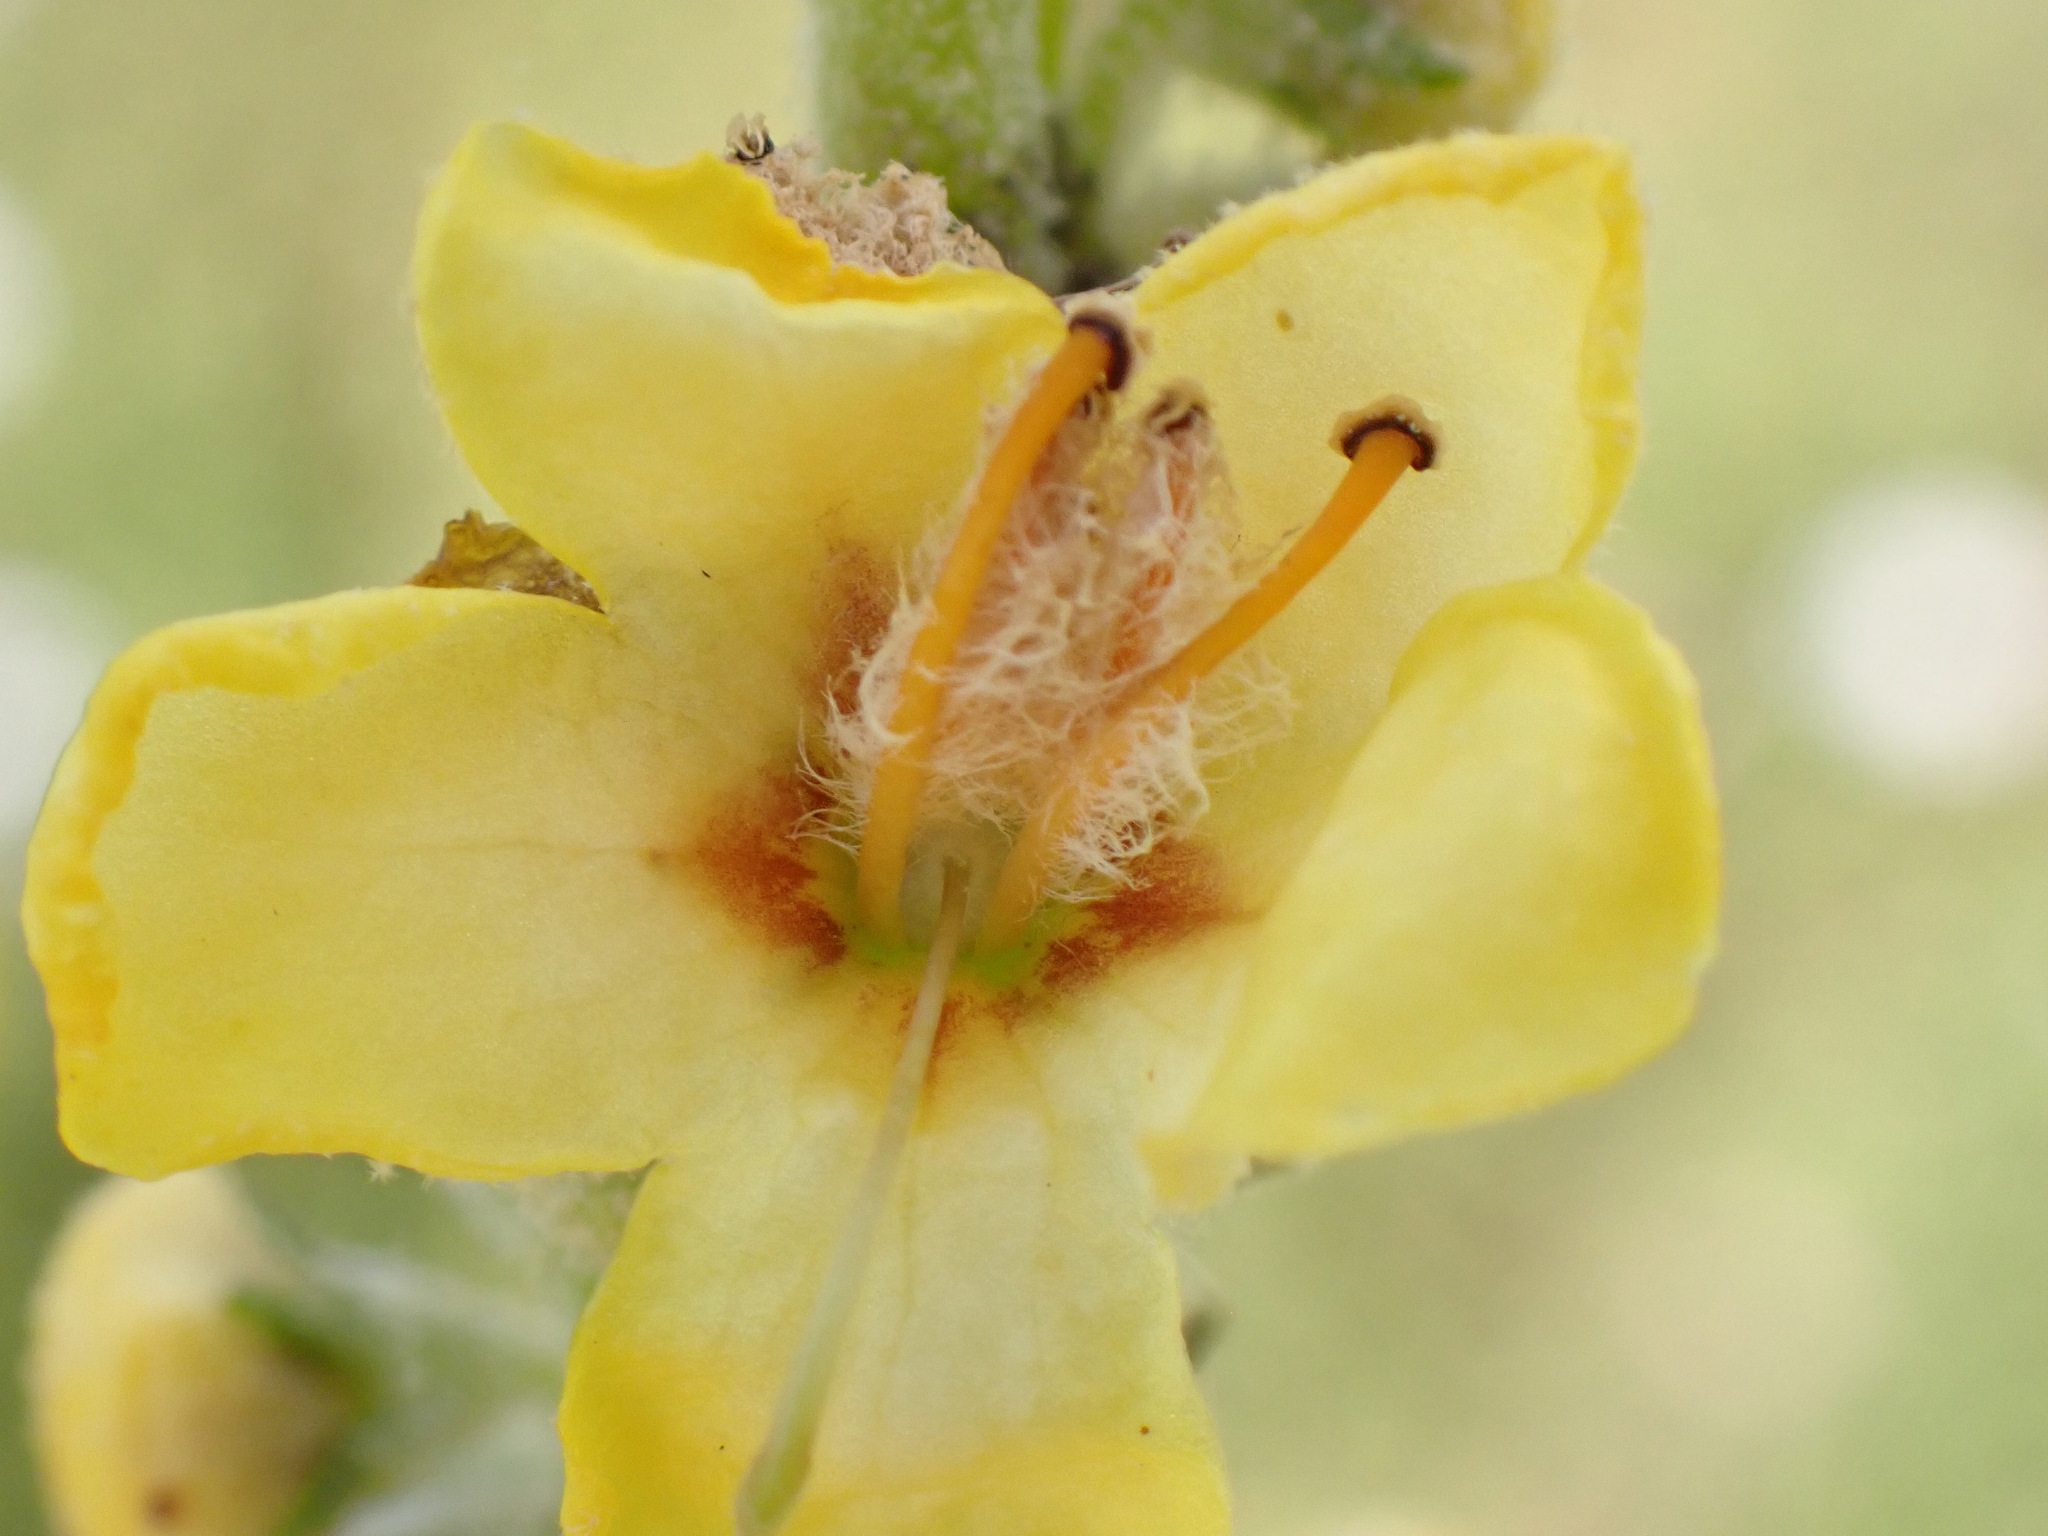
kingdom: Plantae
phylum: Tracheophyta
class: Magnoliopsida
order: Lamiales
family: Scrophulariaceae
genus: Verbascum
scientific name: Verbascum pulverulentum
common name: Broad-leaf mullein
